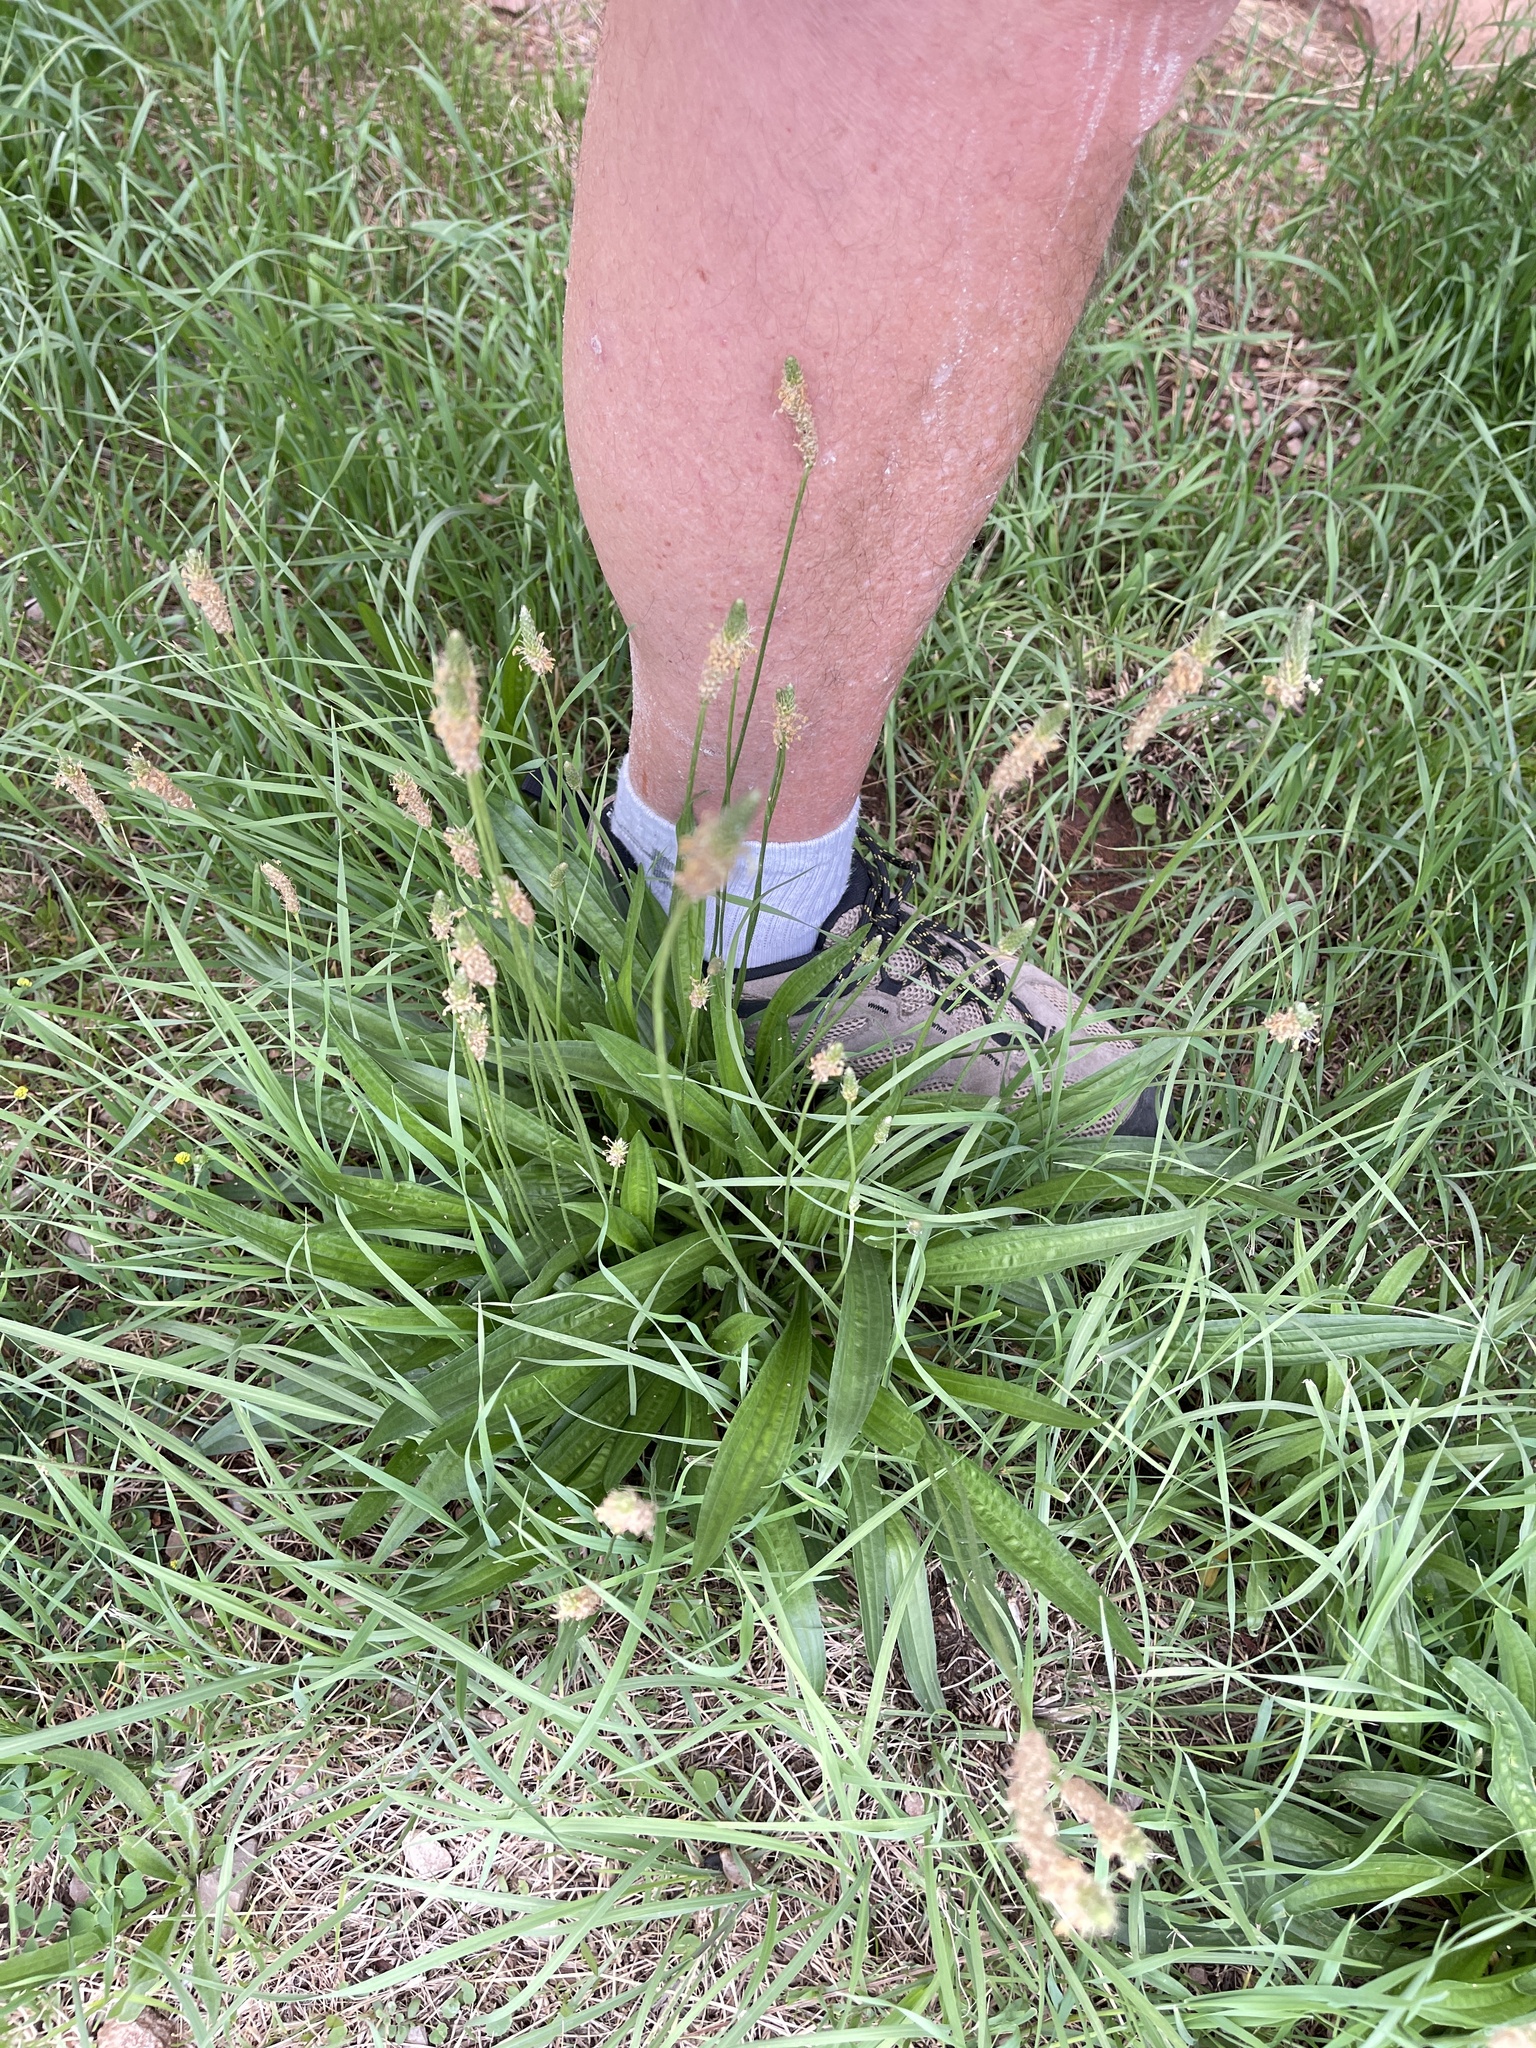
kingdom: Plantae
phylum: Tracheophyta
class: Magnoliopsida
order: Lamiales
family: Plantaginaceae
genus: Plantago
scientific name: Plantago lanceolata
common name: Ribwort plantain
